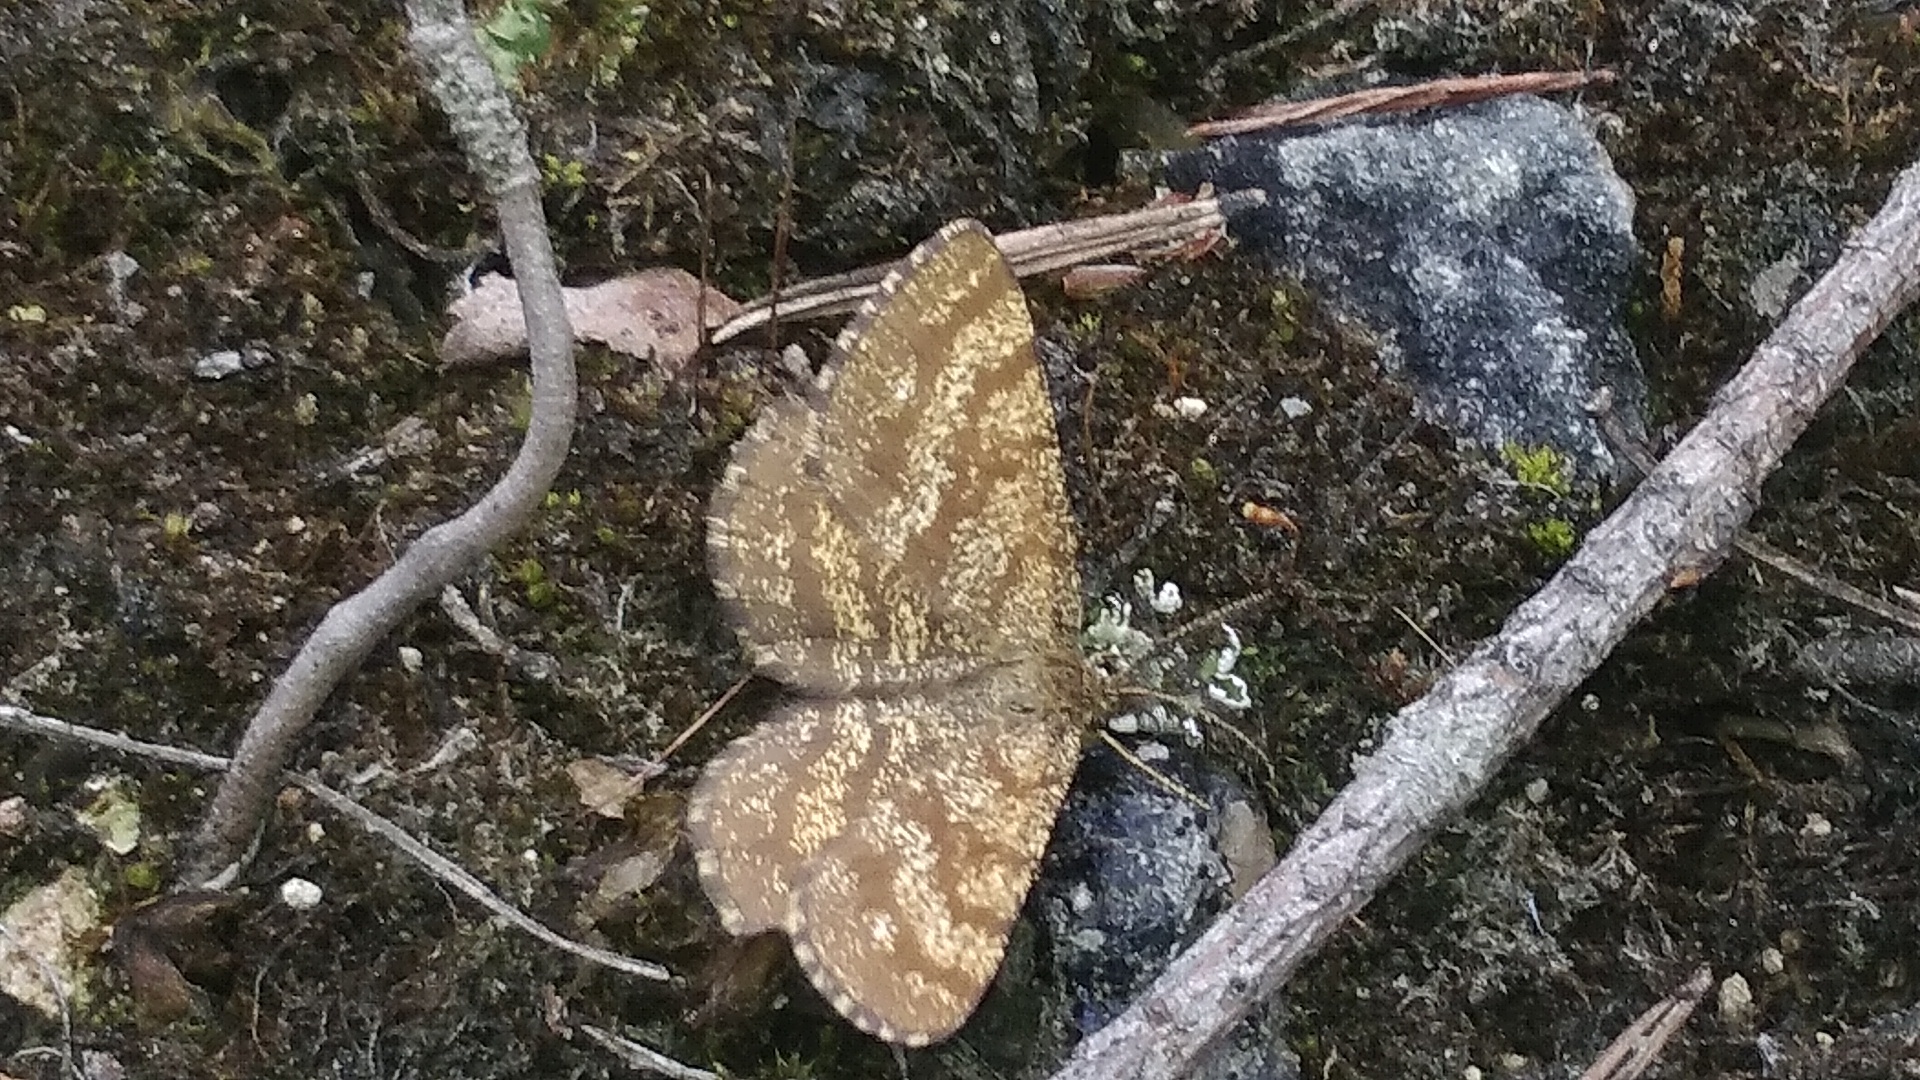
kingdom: Animalia
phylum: Arthropoda
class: Insecta
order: Lepidoptera
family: Geometridae
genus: Ematurga
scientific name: Ematurga atomaria
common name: Common heath
